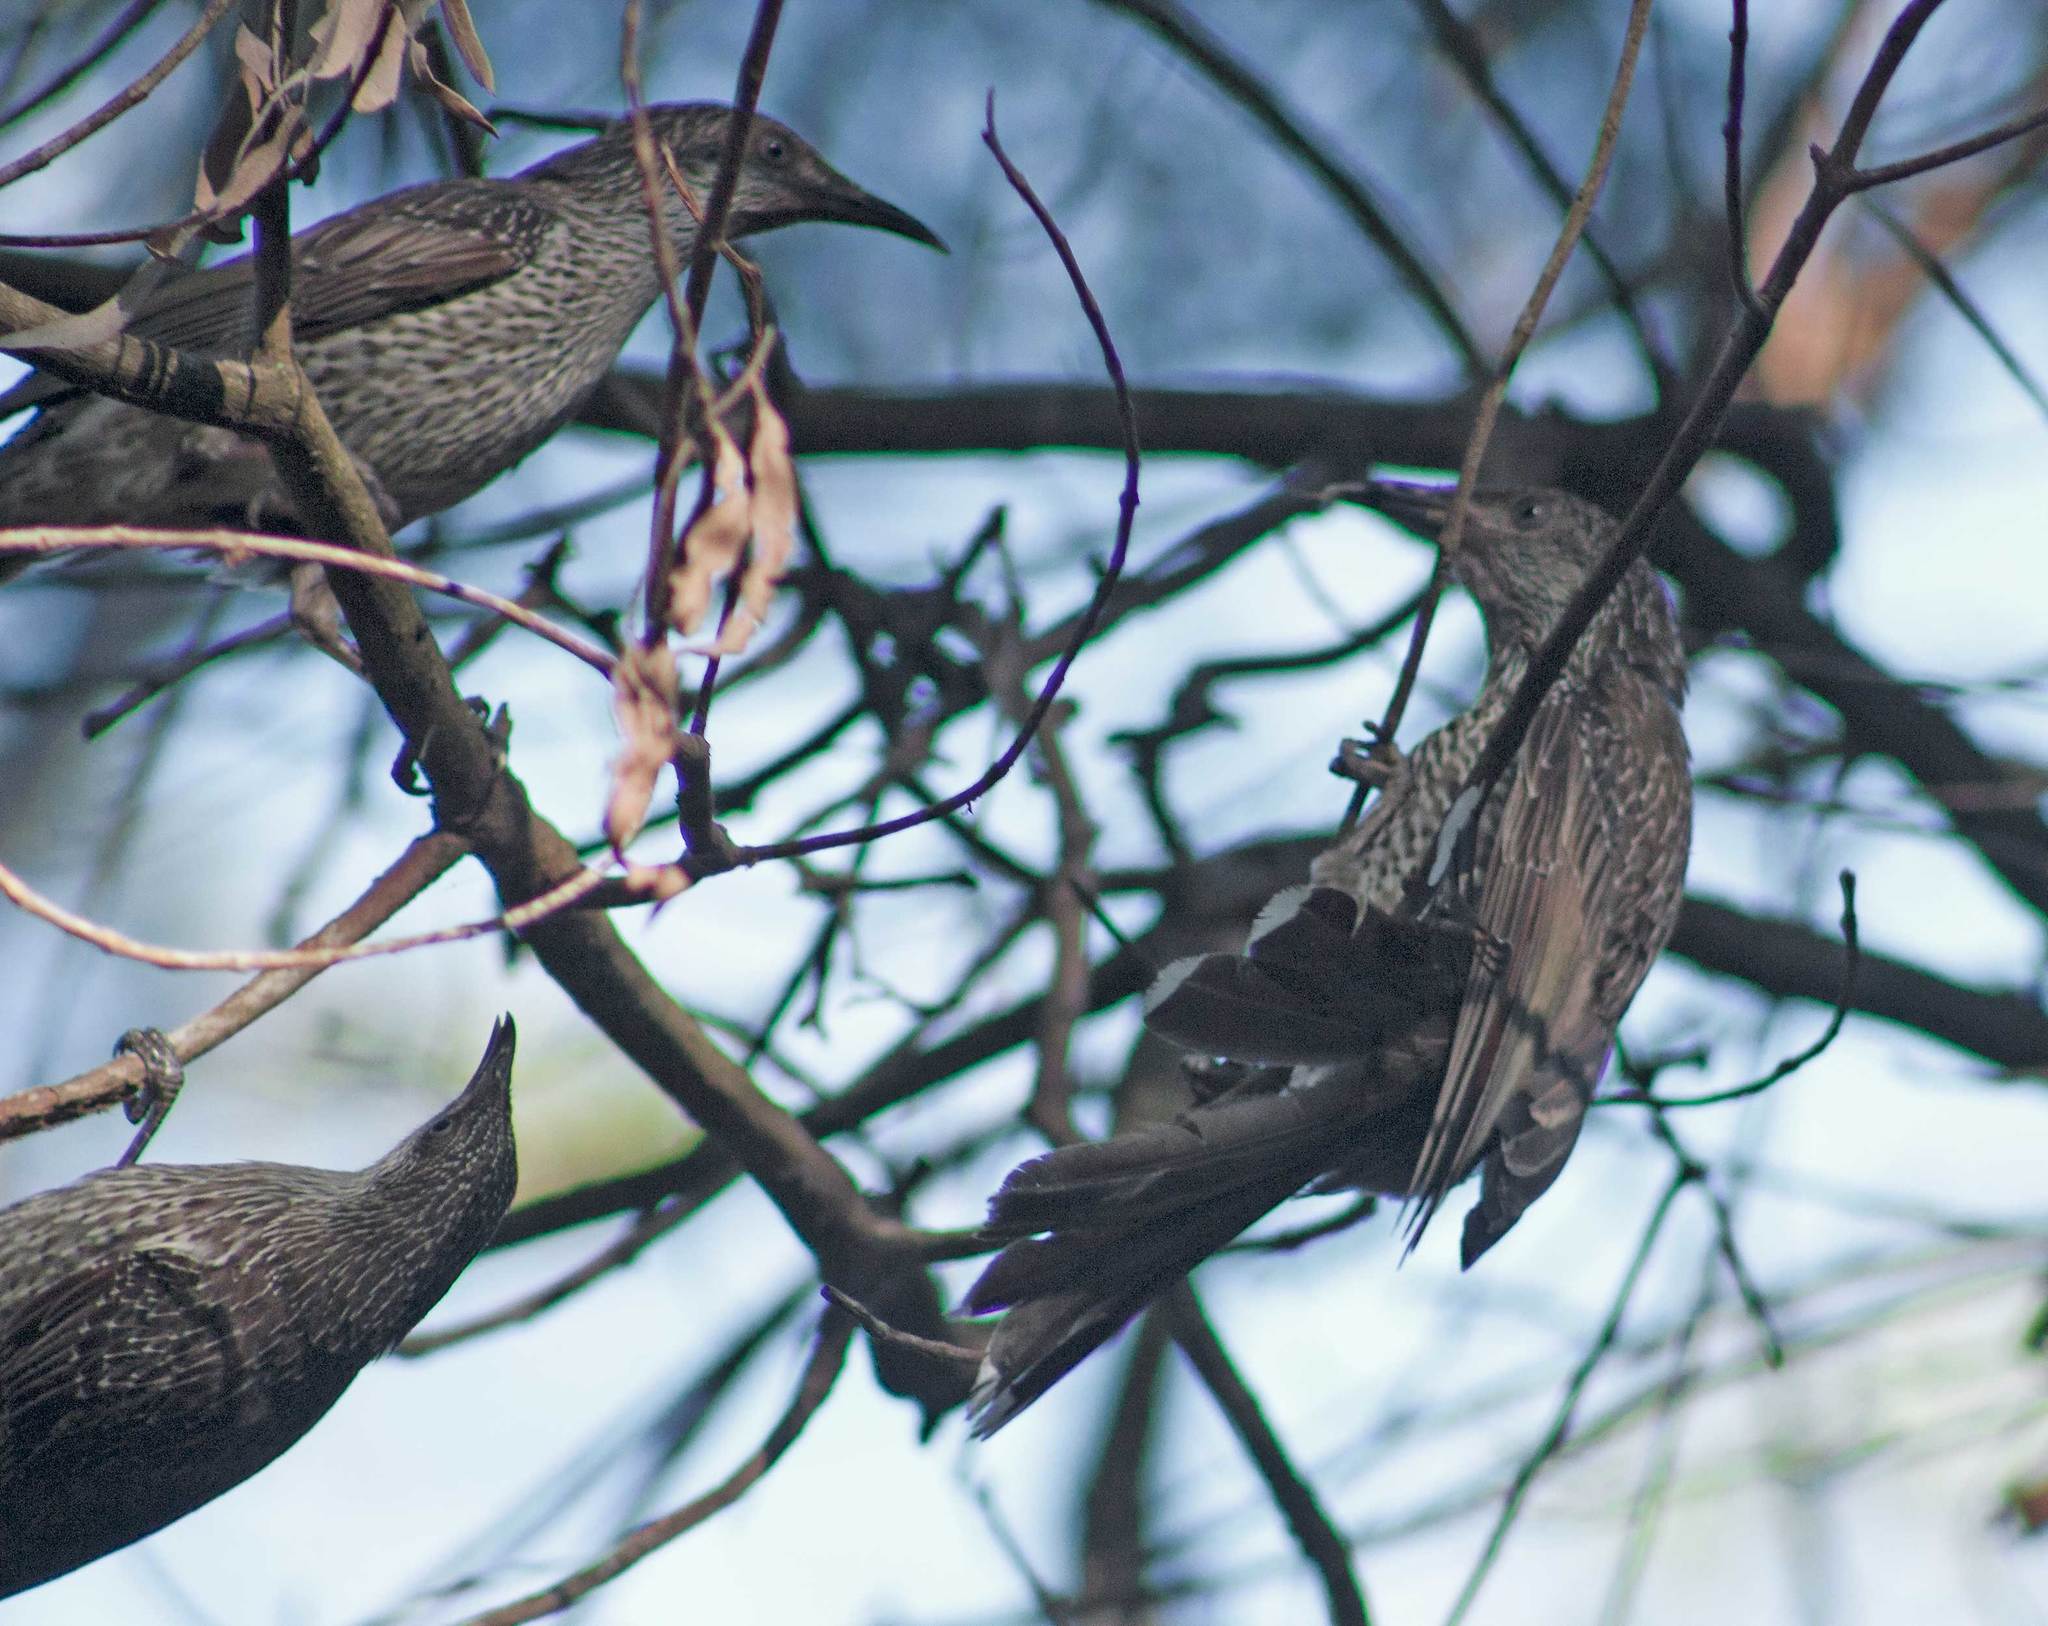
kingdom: Animalia
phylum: Chordata
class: Aves
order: Passeriformes
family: Meliphagidae
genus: Anthochaera
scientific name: Anthochaera chrysoptera
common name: Little wattlebird
